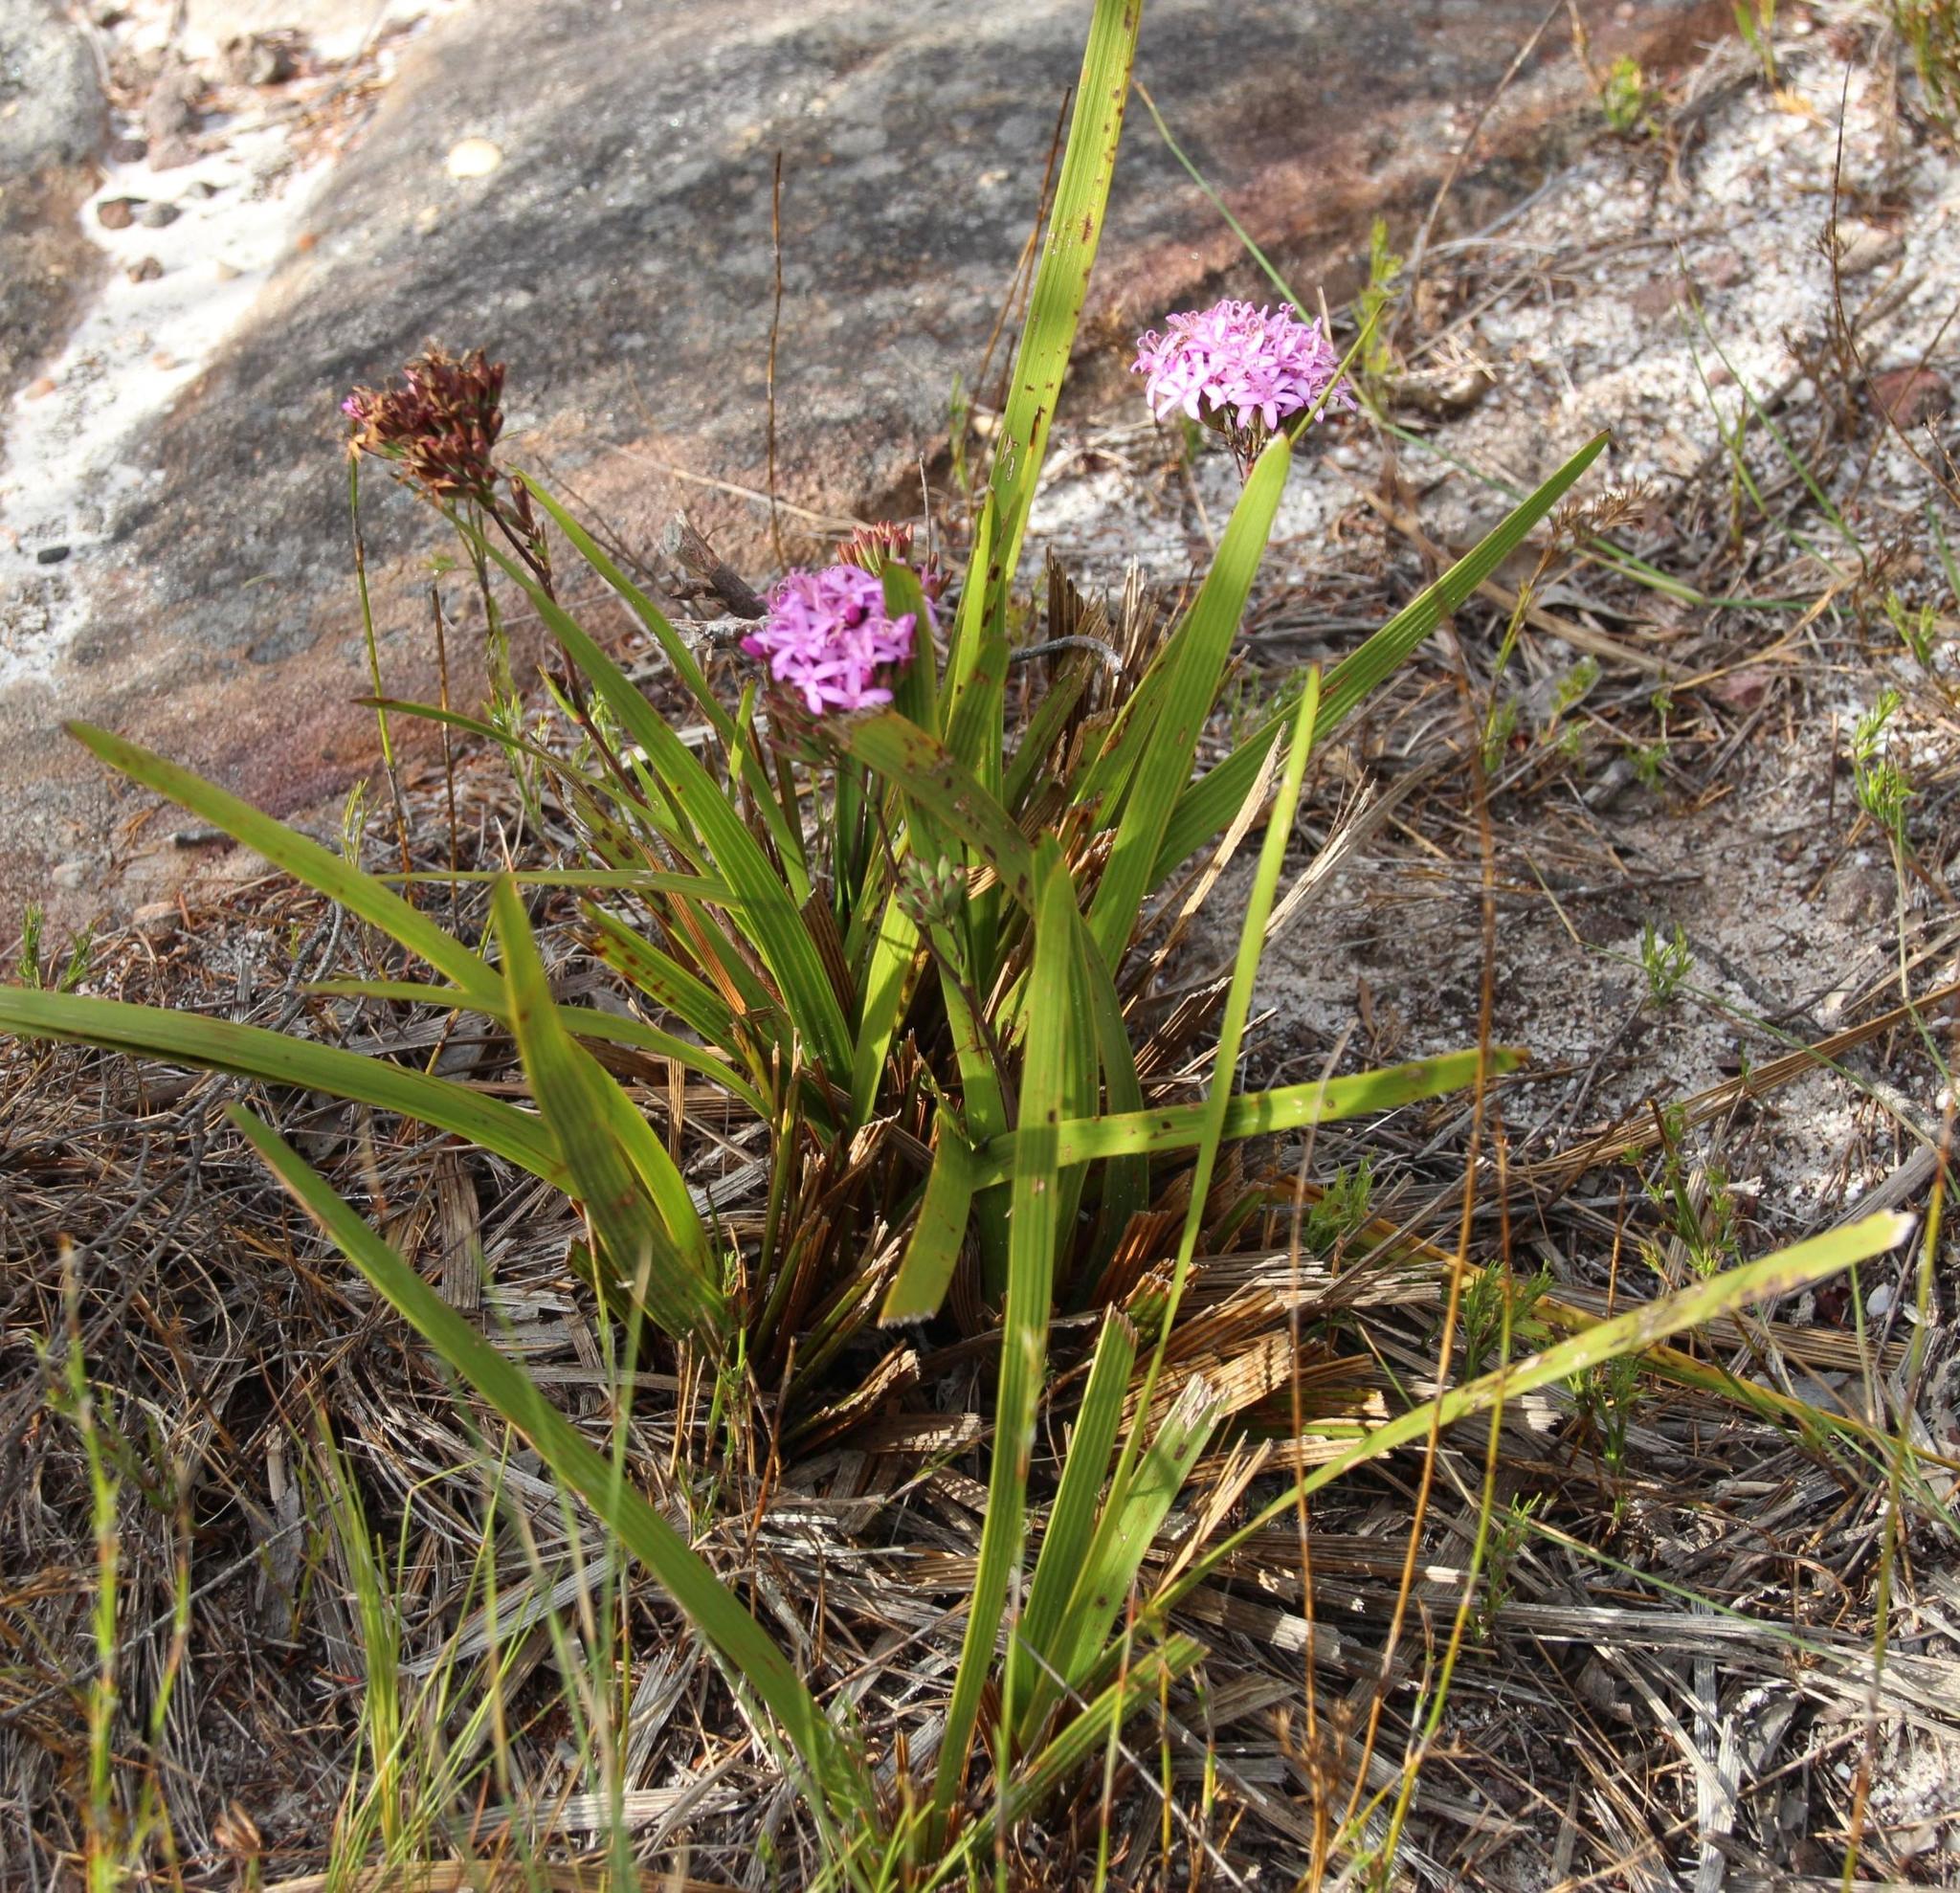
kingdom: Plantae
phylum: Tracheophyta
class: Magnoliopsida
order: Asterales
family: Asteraceae
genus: Corymbium
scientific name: Corymbium glabrum
